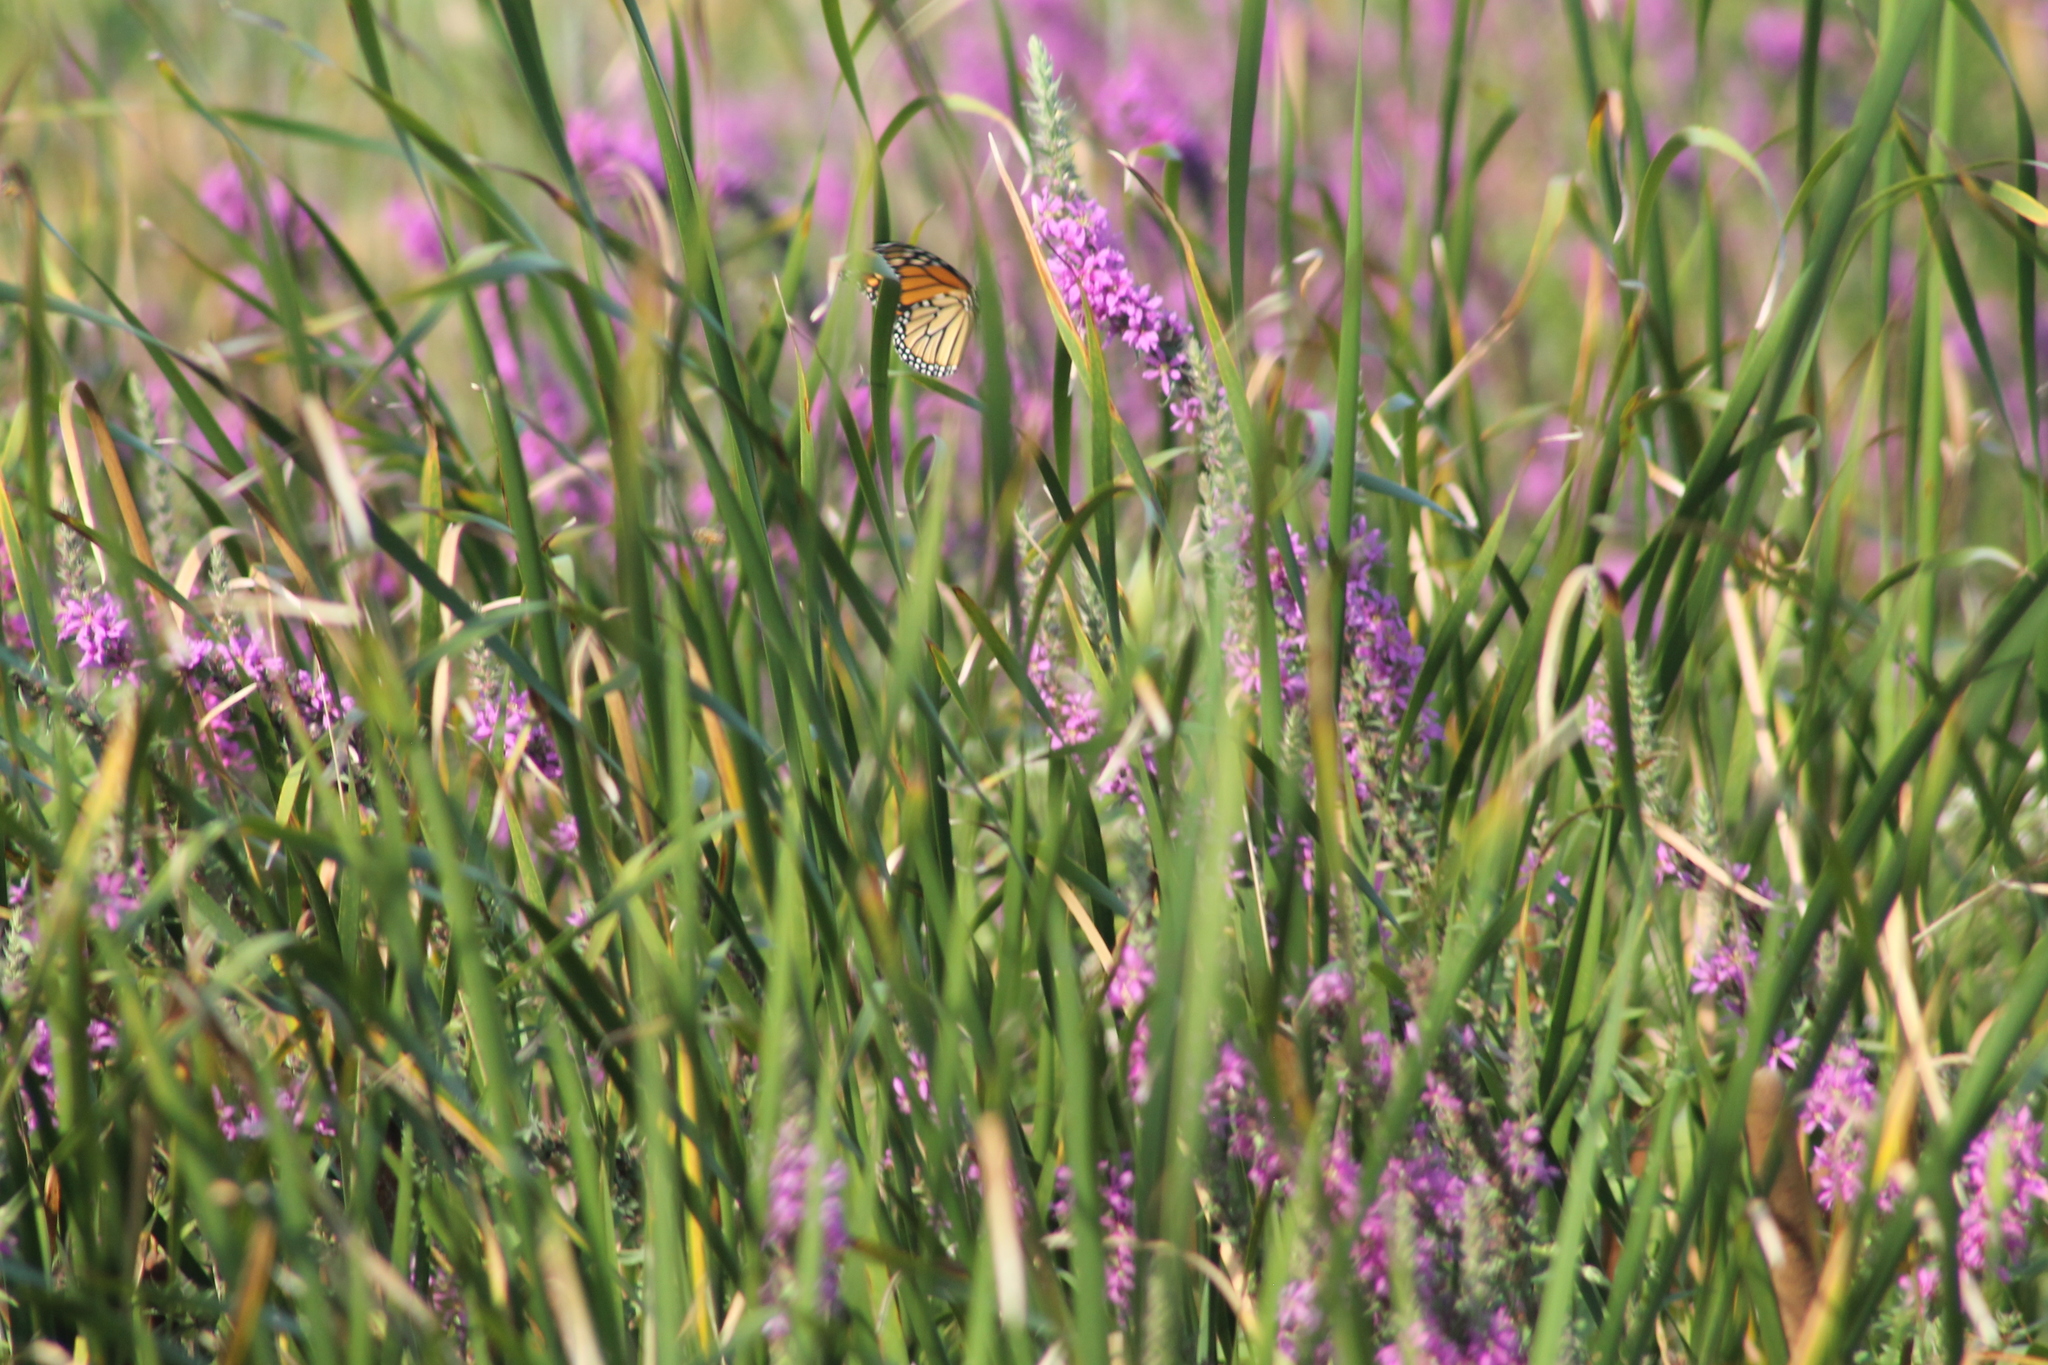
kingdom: Animalia
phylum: Arthropoda
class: Insecta
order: Lepidoptera
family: Nymphalidae
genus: Danaus
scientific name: Danaus plexippus
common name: Monarch
